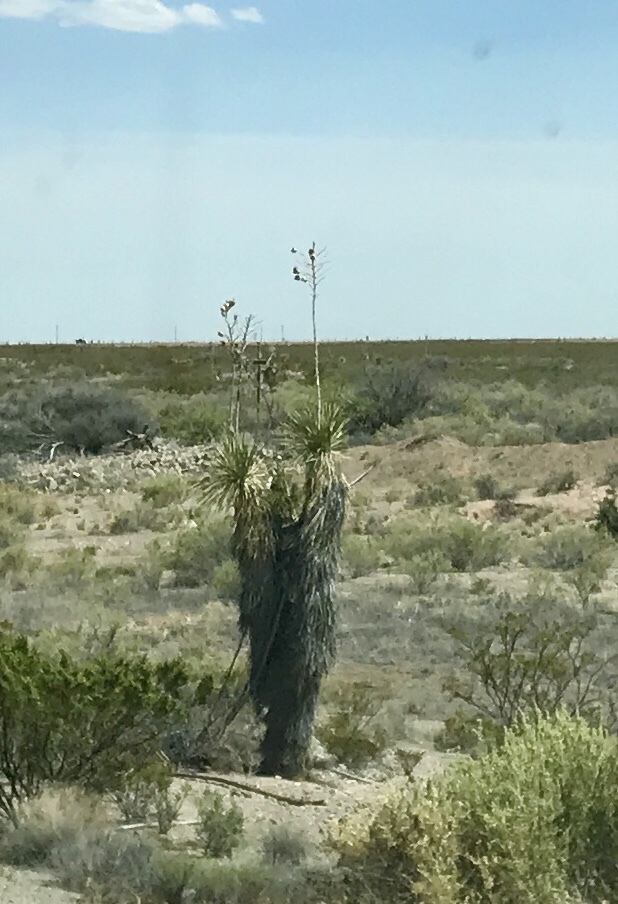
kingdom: Plantae
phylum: Tracheophyta
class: Liliopsida
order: Asparagales
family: Asparagaceae
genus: Yucca
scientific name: Yucca elata
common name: Palmella
